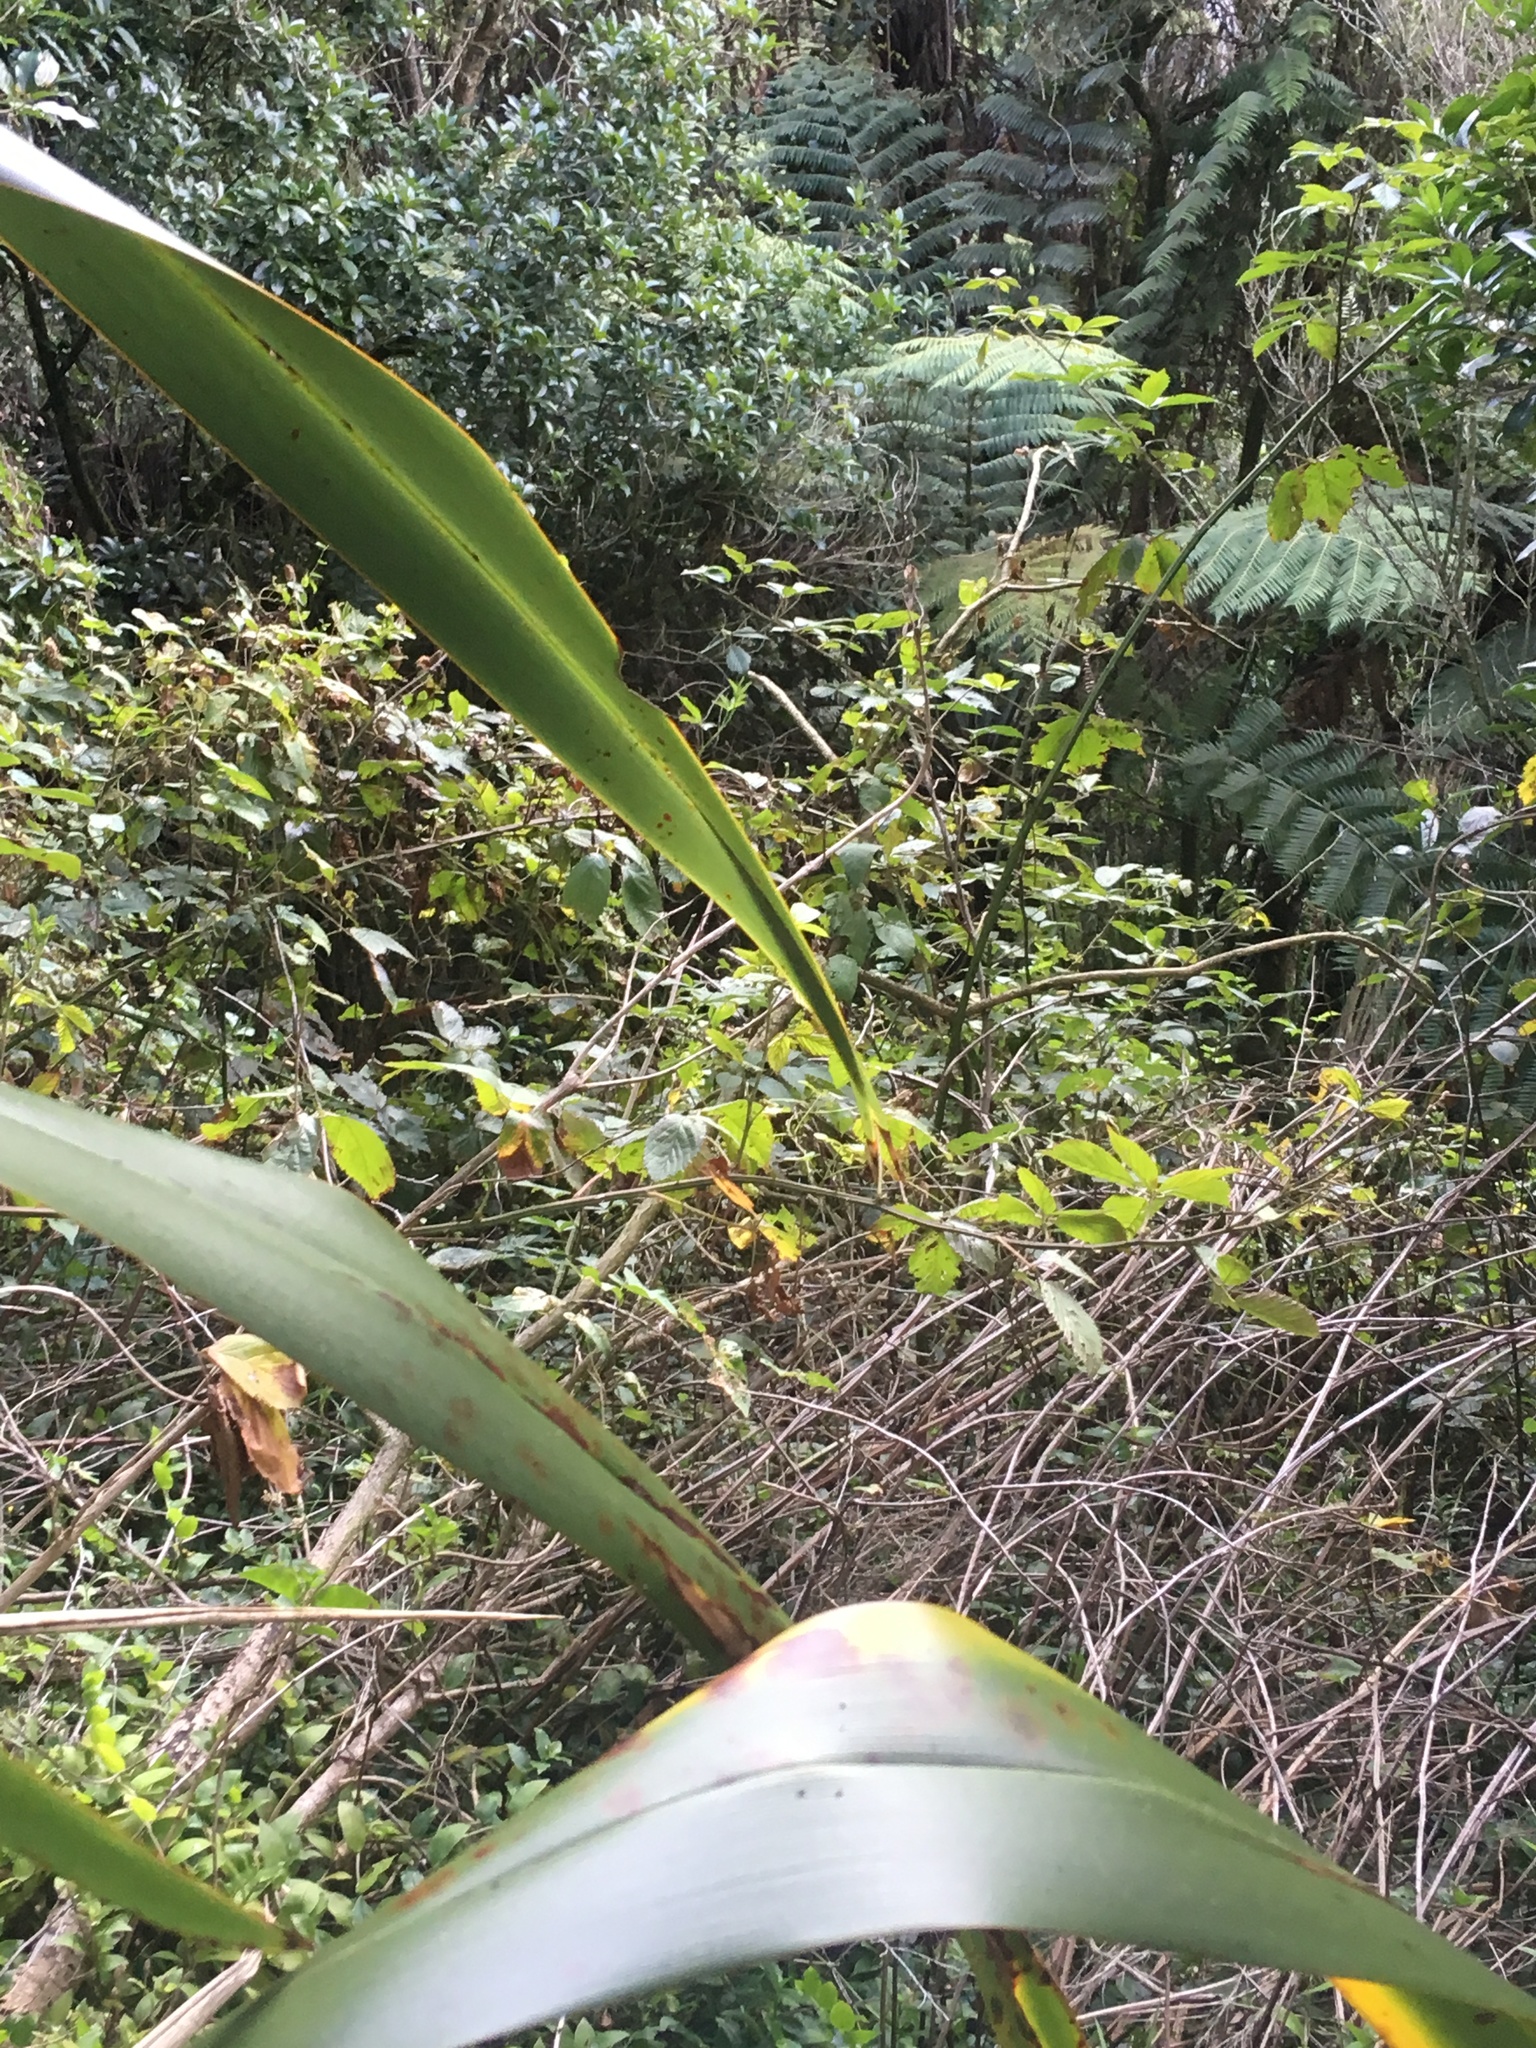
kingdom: Plantae
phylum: Tracheophyta
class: Magnoliopsida
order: Rosales
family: Rosaceae
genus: Rubus
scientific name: Rubus
